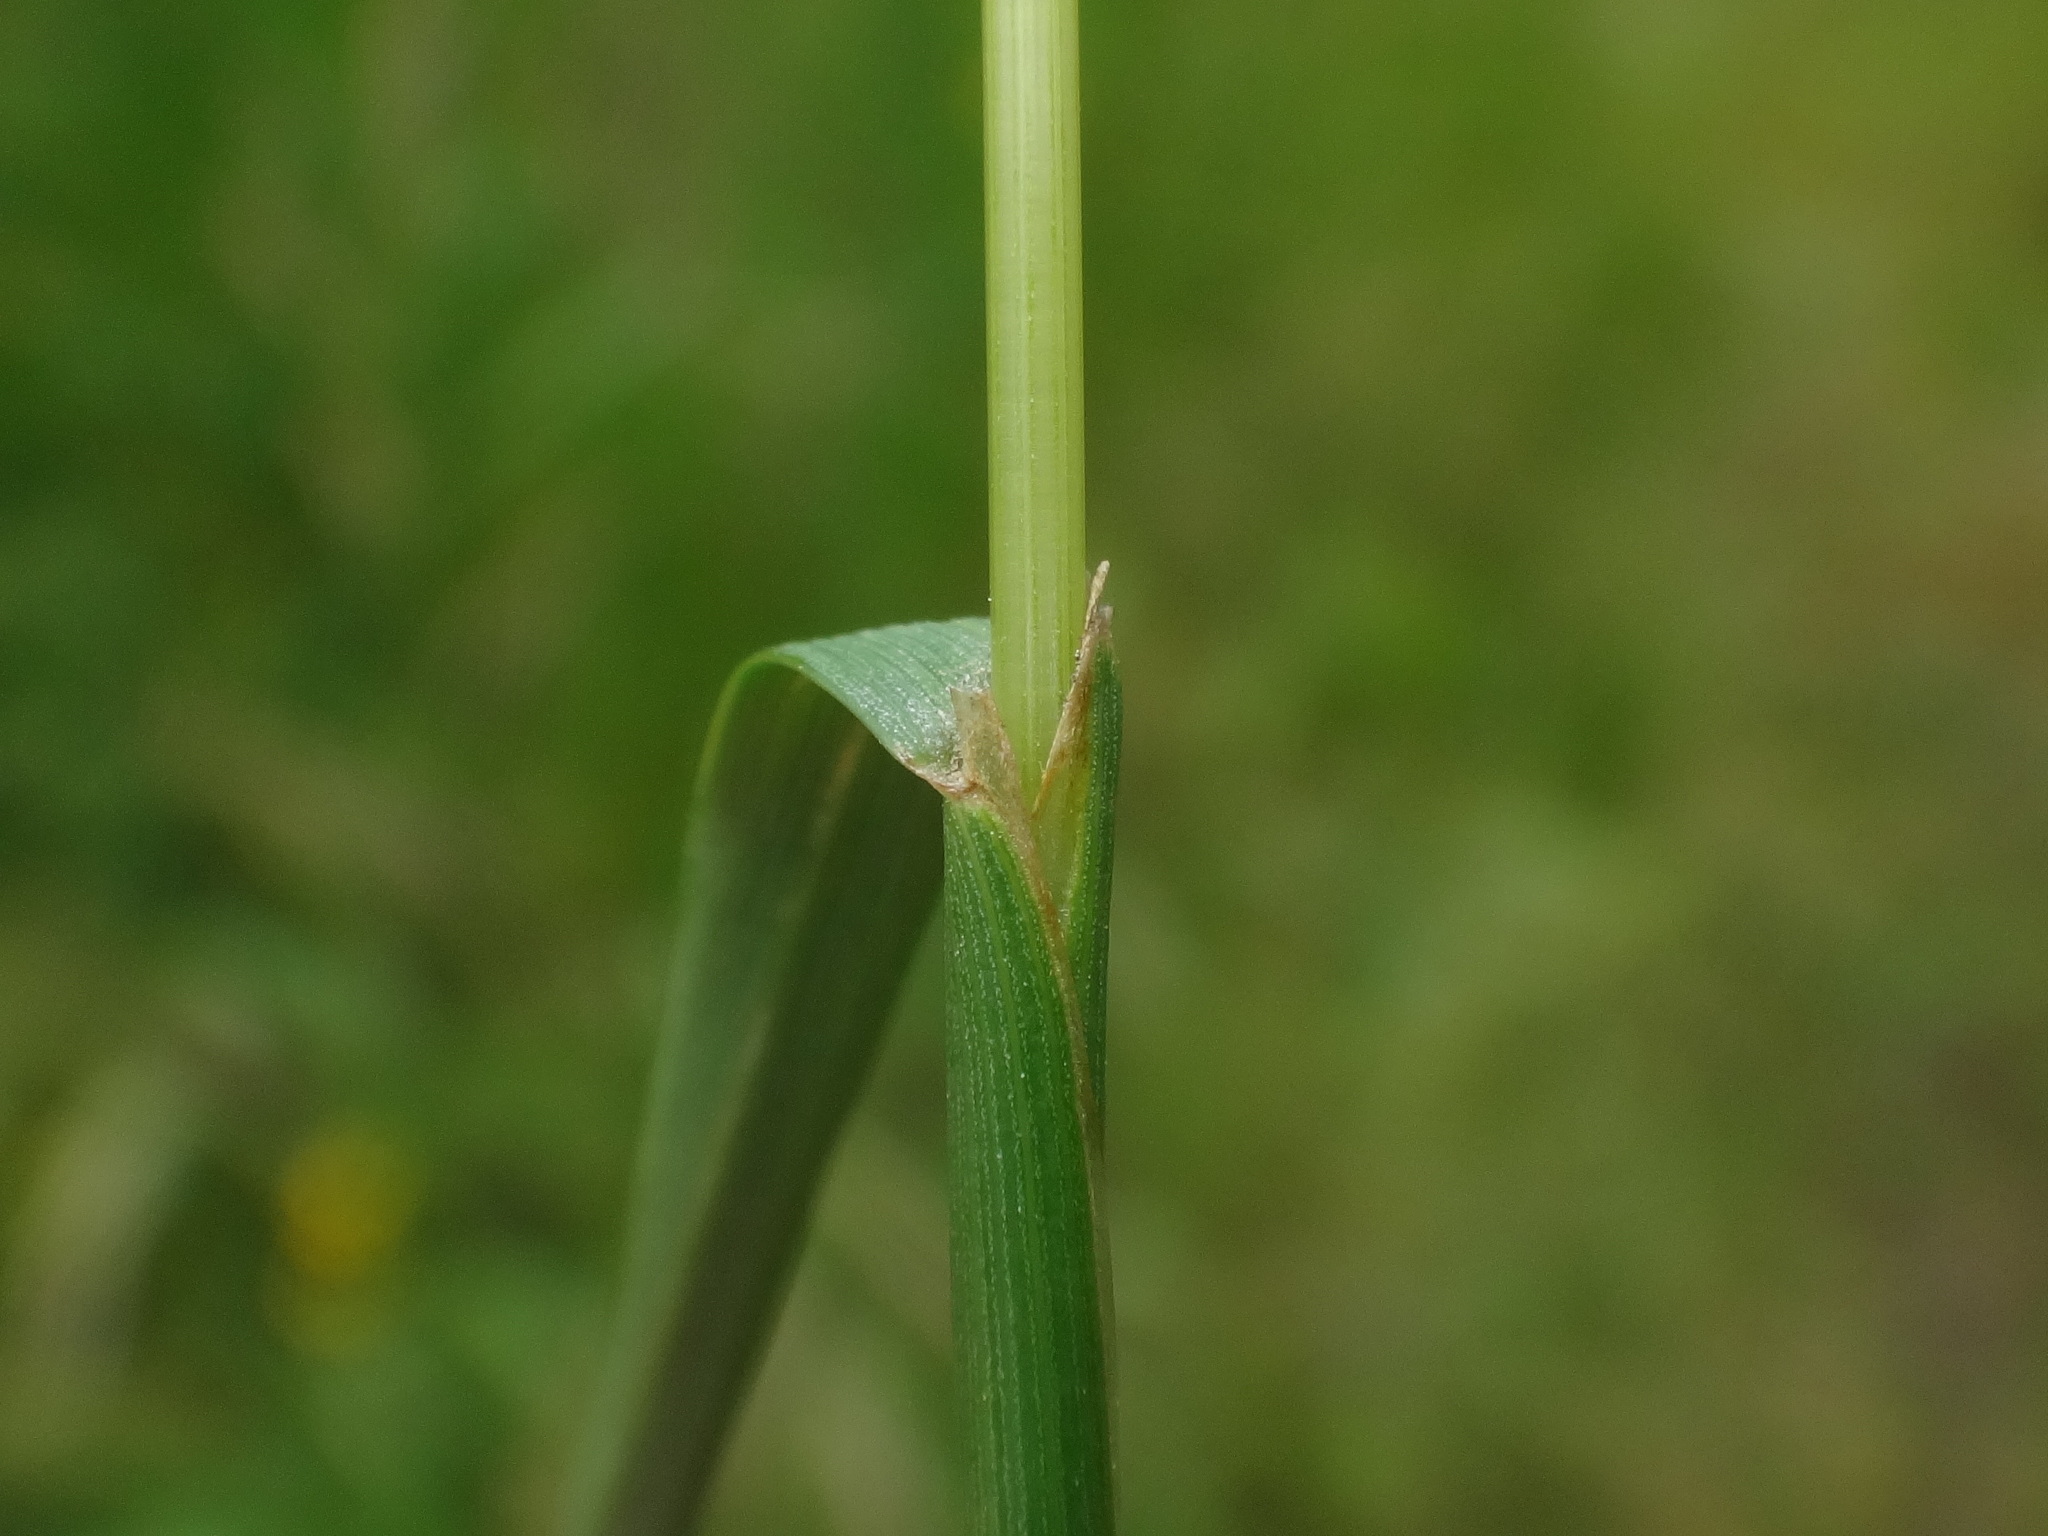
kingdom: Plantae
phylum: Tracheophyta
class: Liliopsida
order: Poales
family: Poaceae
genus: Cynosurus
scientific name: Cynosurus cristatus
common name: Crested dog's-tail
